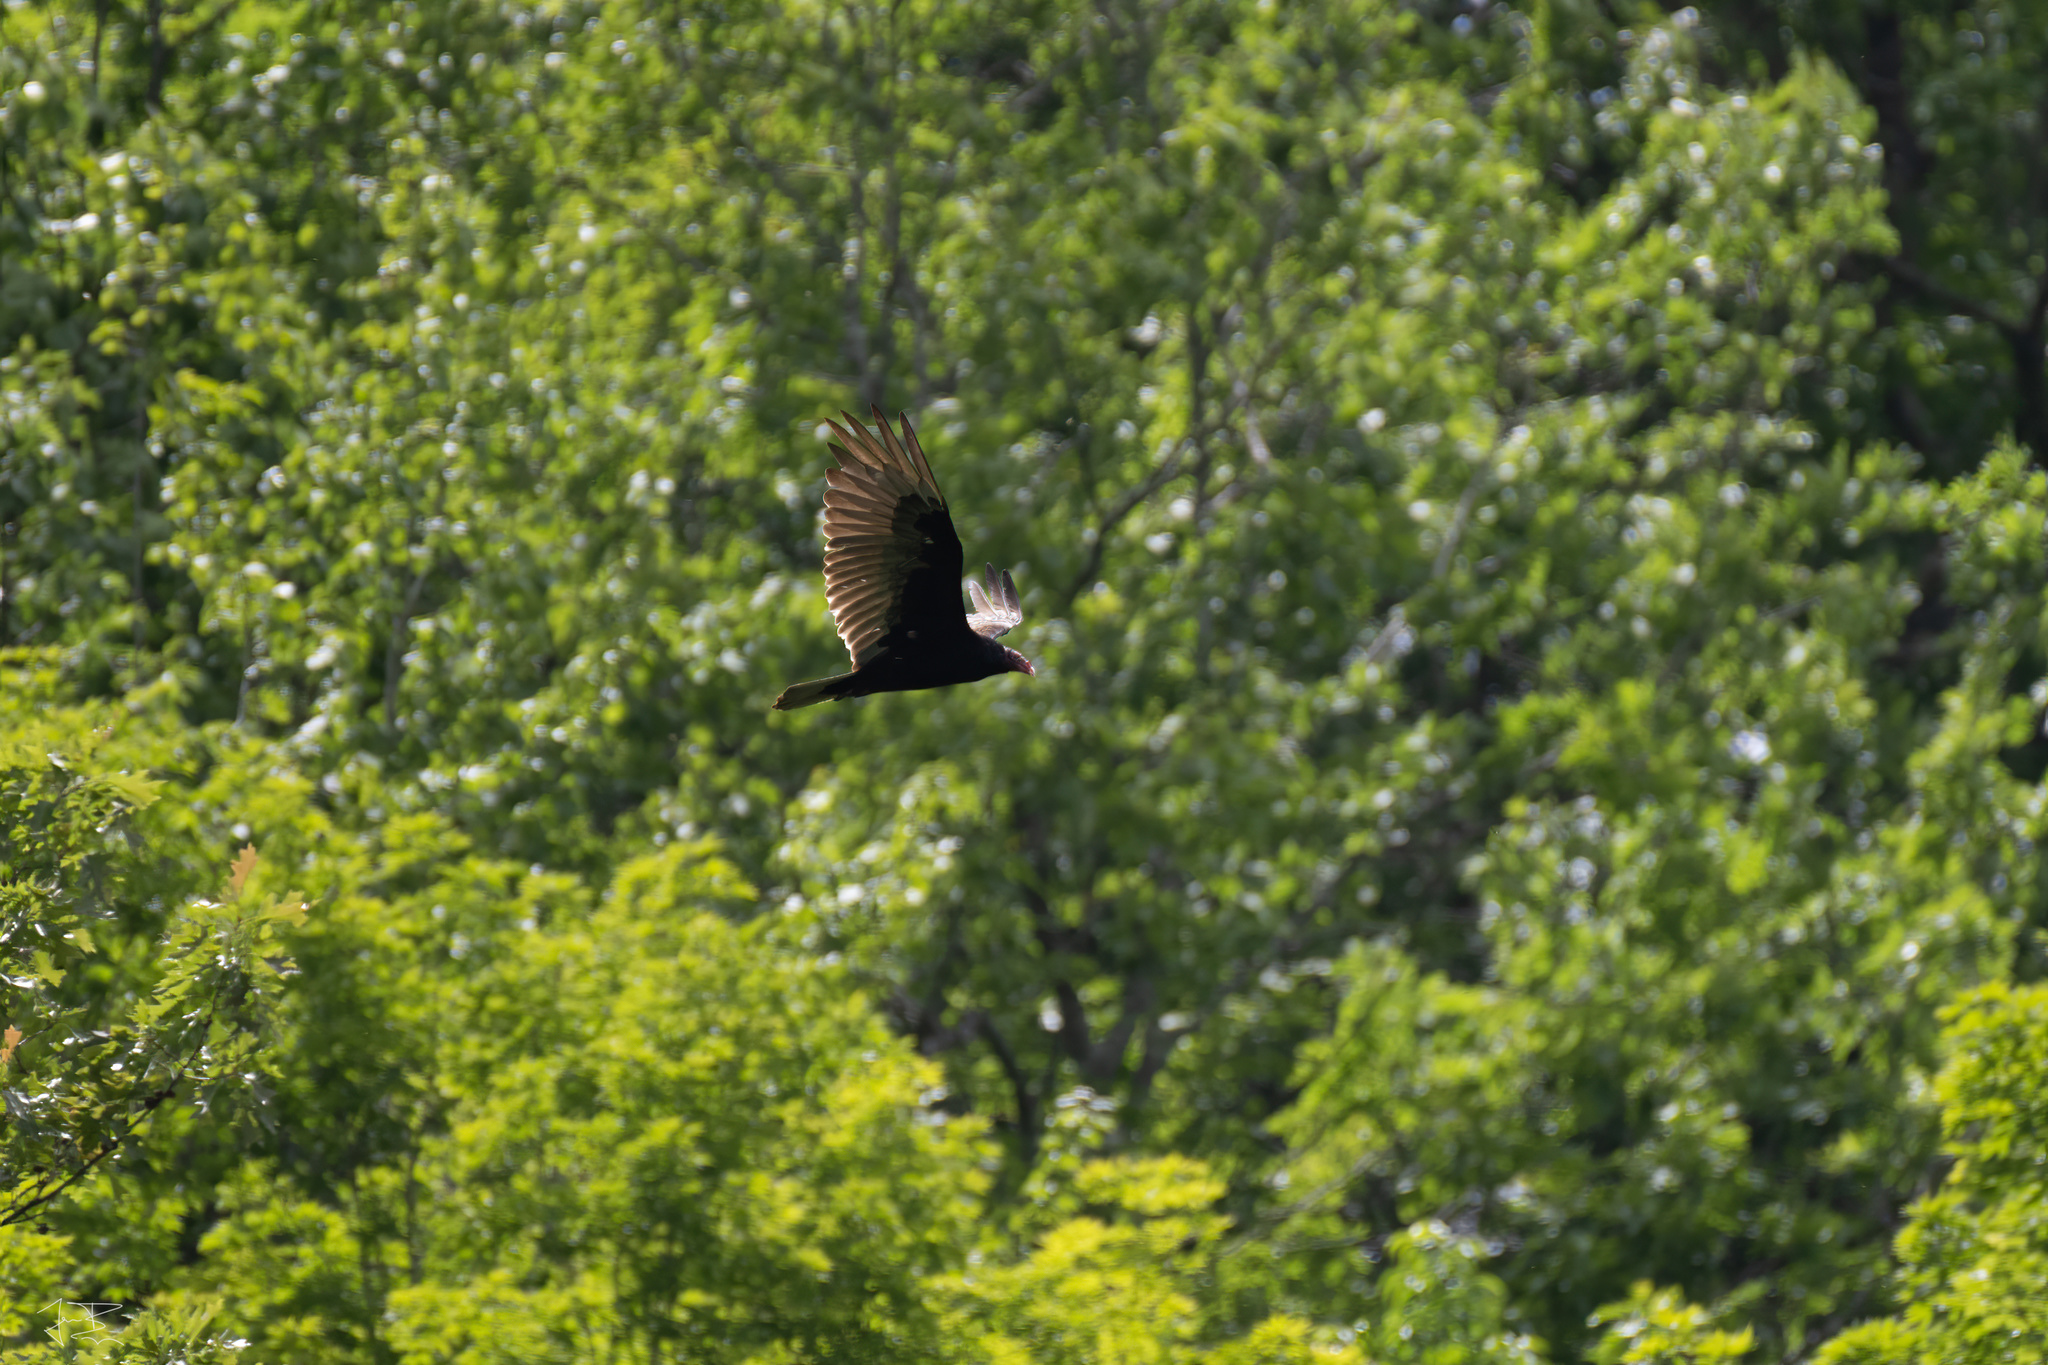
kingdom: Animalia
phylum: Chordata
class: Aves
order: Accipitriformes
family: Cathartidae
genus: Cathartes
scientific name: Cathartes aura
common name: Turkey vulture
